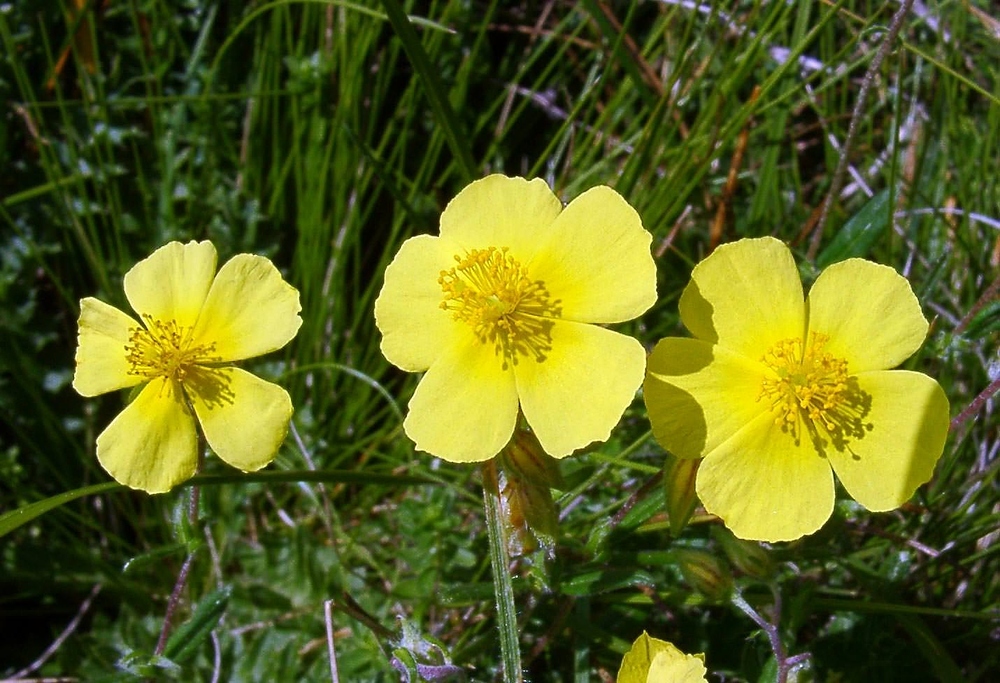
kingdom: Plantae
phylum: Tracheophyta
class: Magnoliopsida
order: Malvales
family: Cistaceae
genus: Helianthemum
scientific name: Helianthemum nummularium
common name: Common rock-rose
